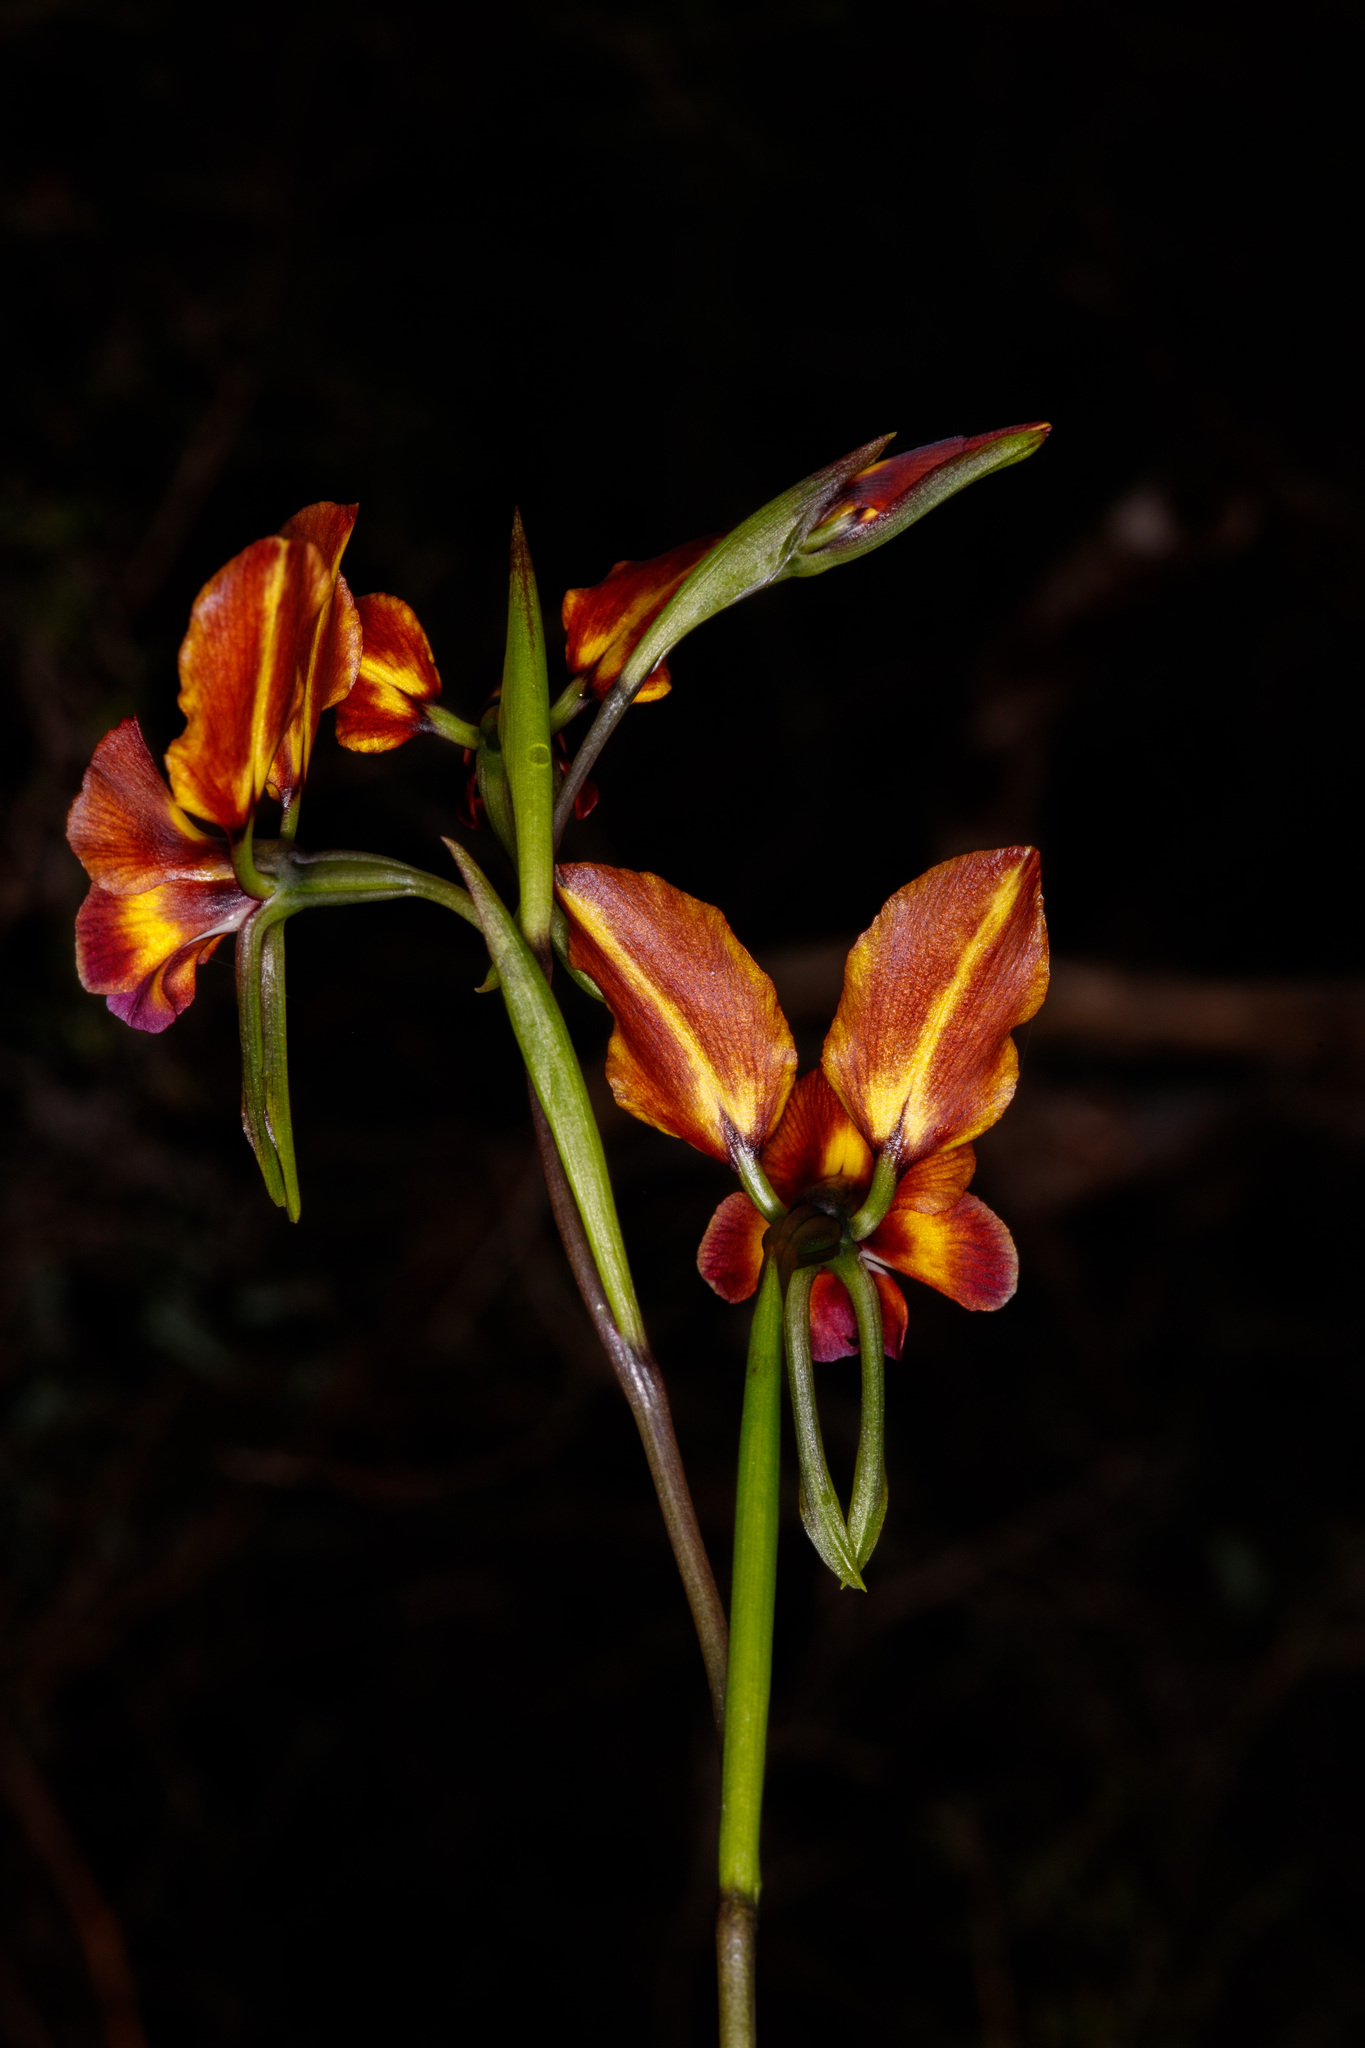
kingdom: Plantae
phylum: Tracheophyta
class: Liliopsida
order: Asparagales
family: Orchidaceae
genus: Diuris
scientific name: Diuris magnifica
